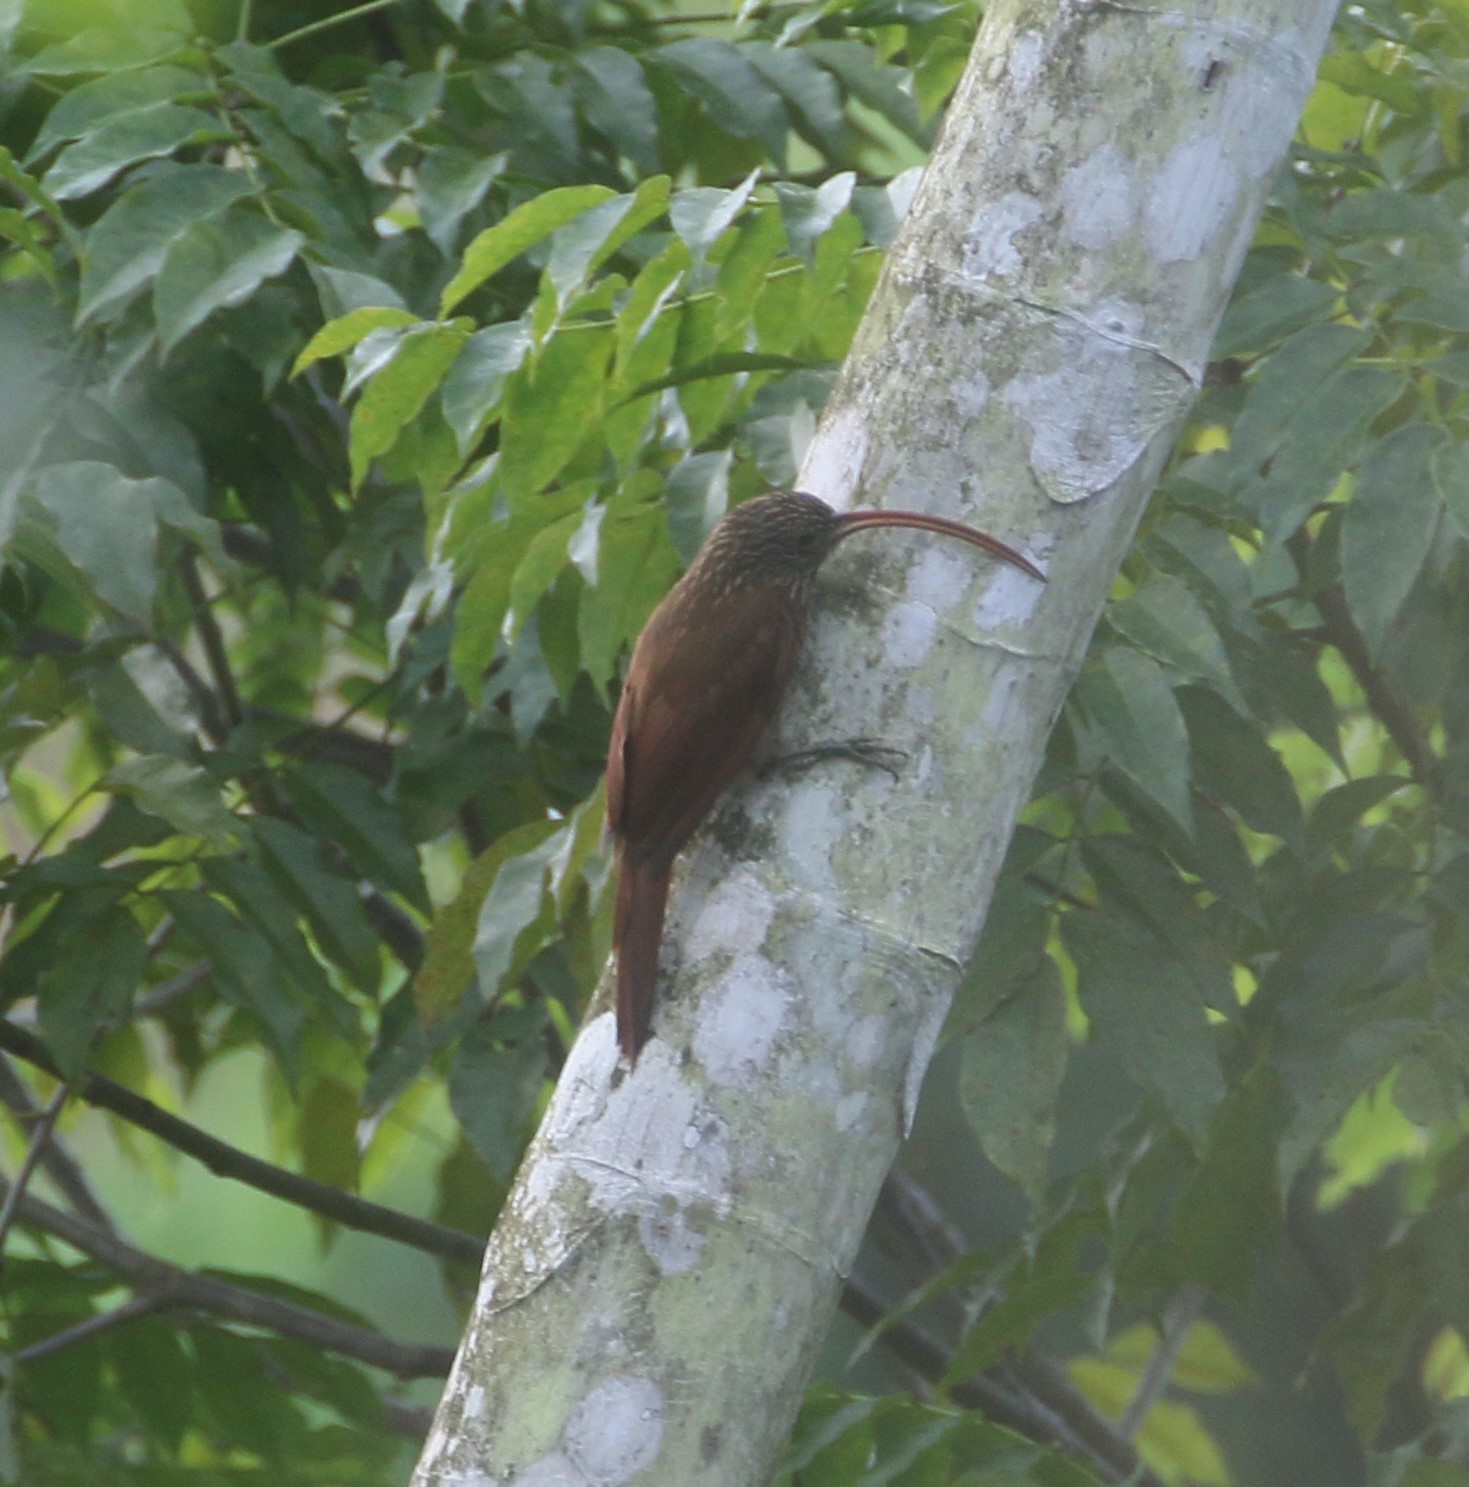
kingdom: Animalia
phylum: Chordata
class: Aves
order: Passeriformes
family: Furnariidae
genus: Campylorhamphus
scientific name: Campylorhamphus trochilirostris
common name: Red-billed scythebill
